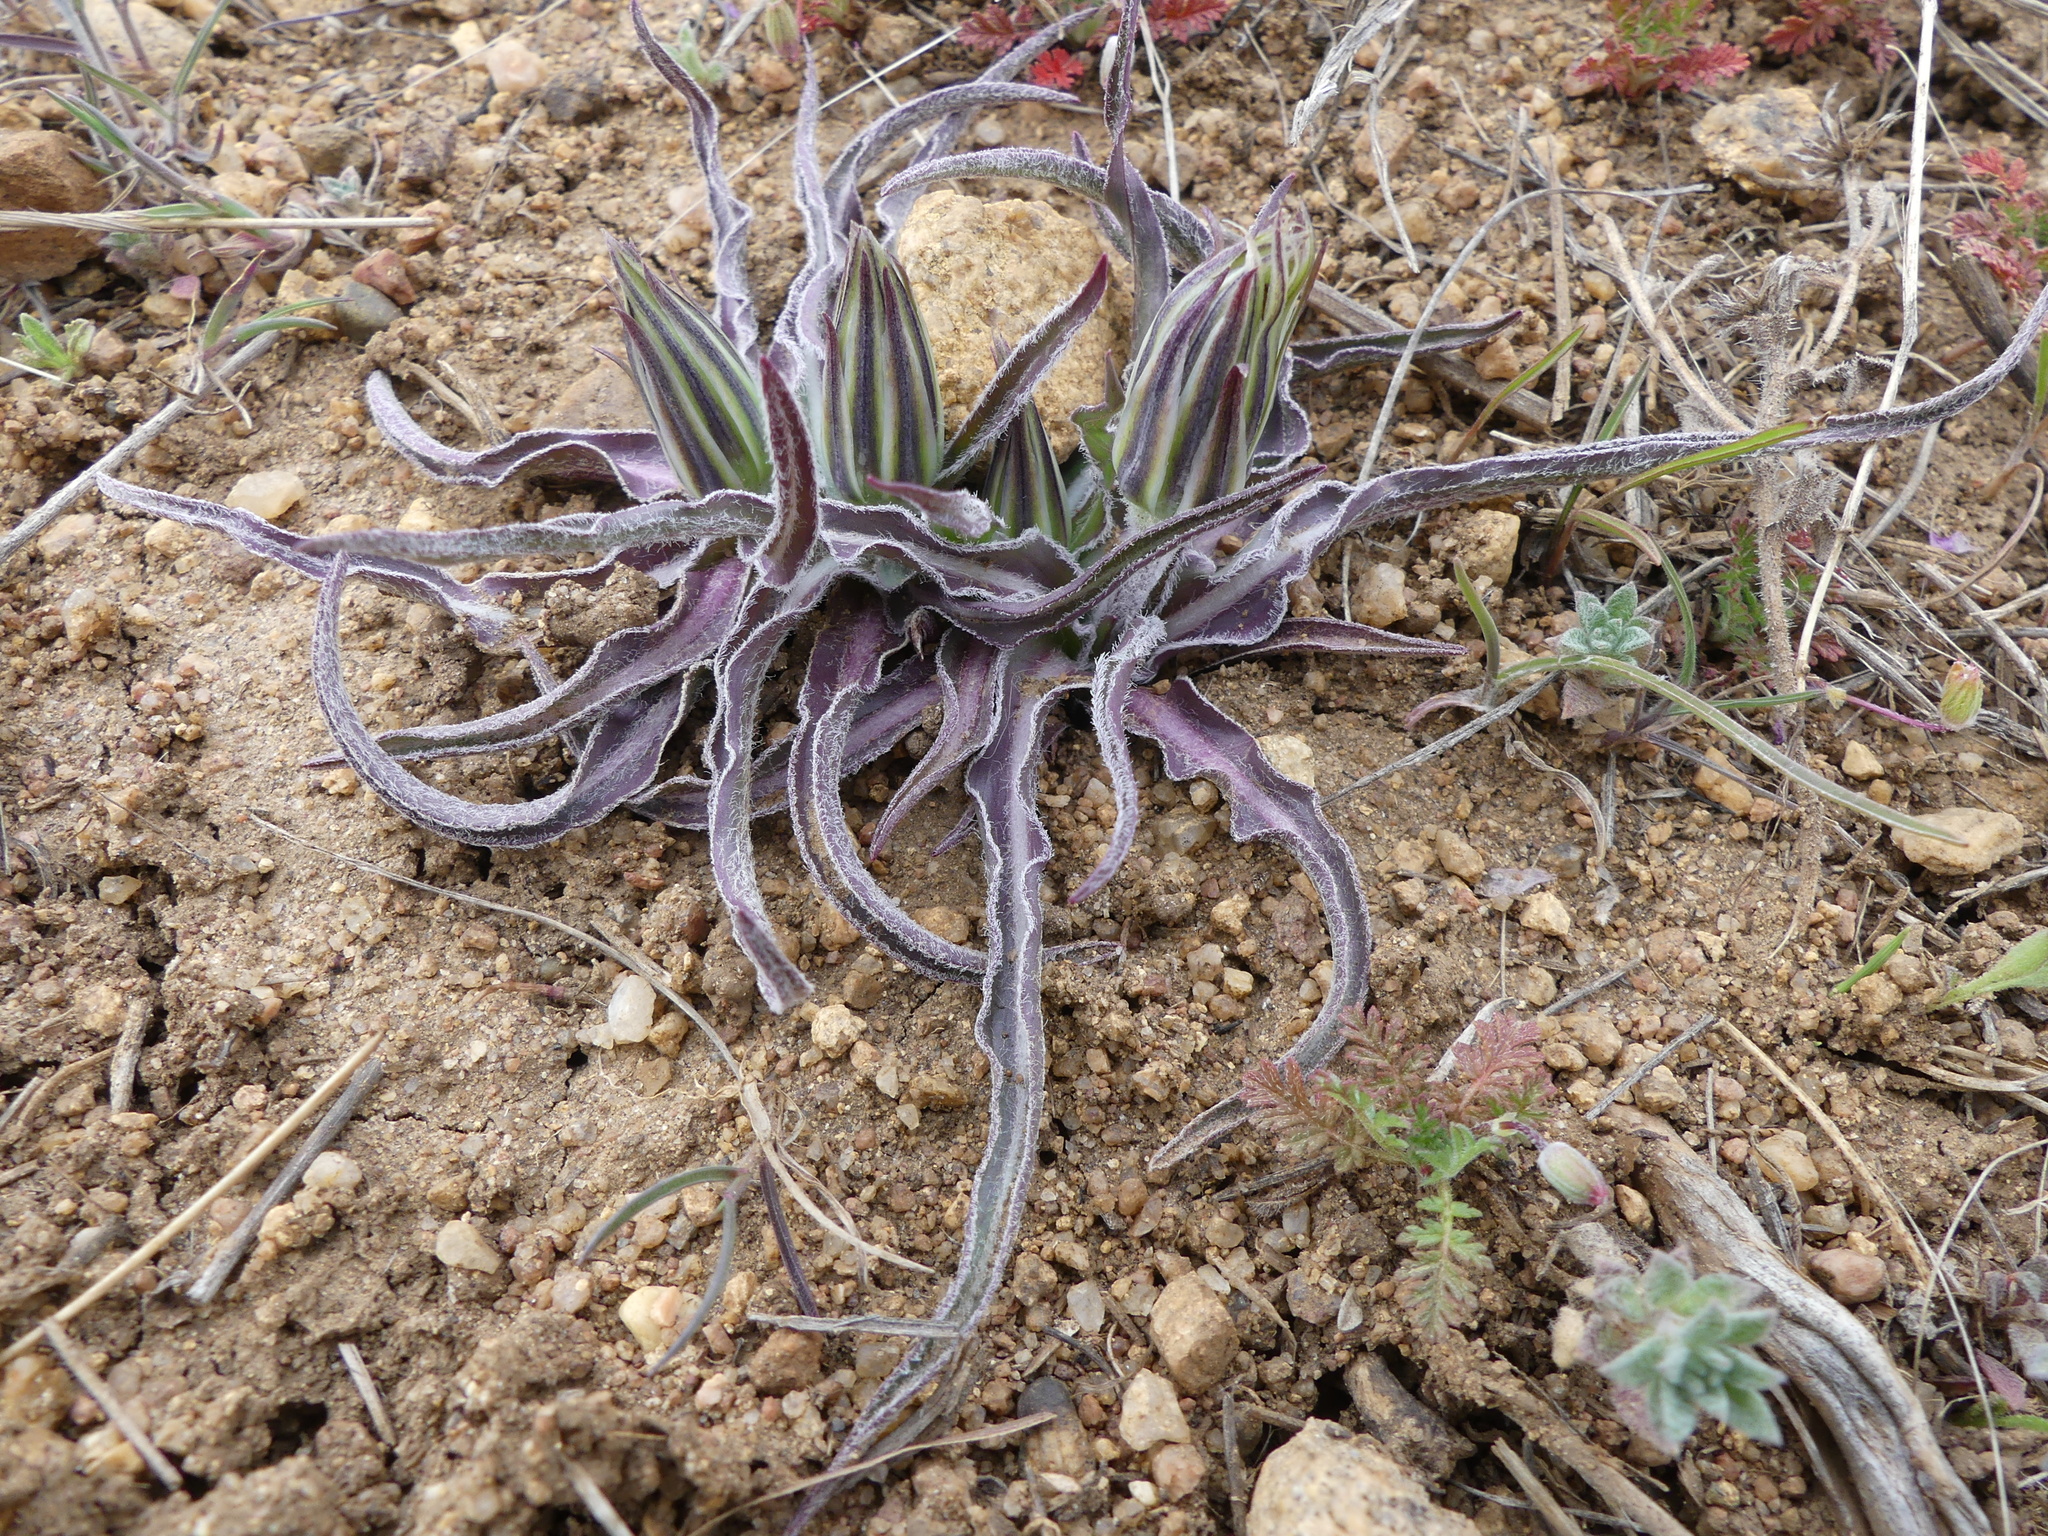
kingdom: Plantae
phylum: Tracheophyta
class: Magnoliopsida
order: Asterales
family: Asteraceae
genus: Microseris
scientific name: Microseris cuspidata
